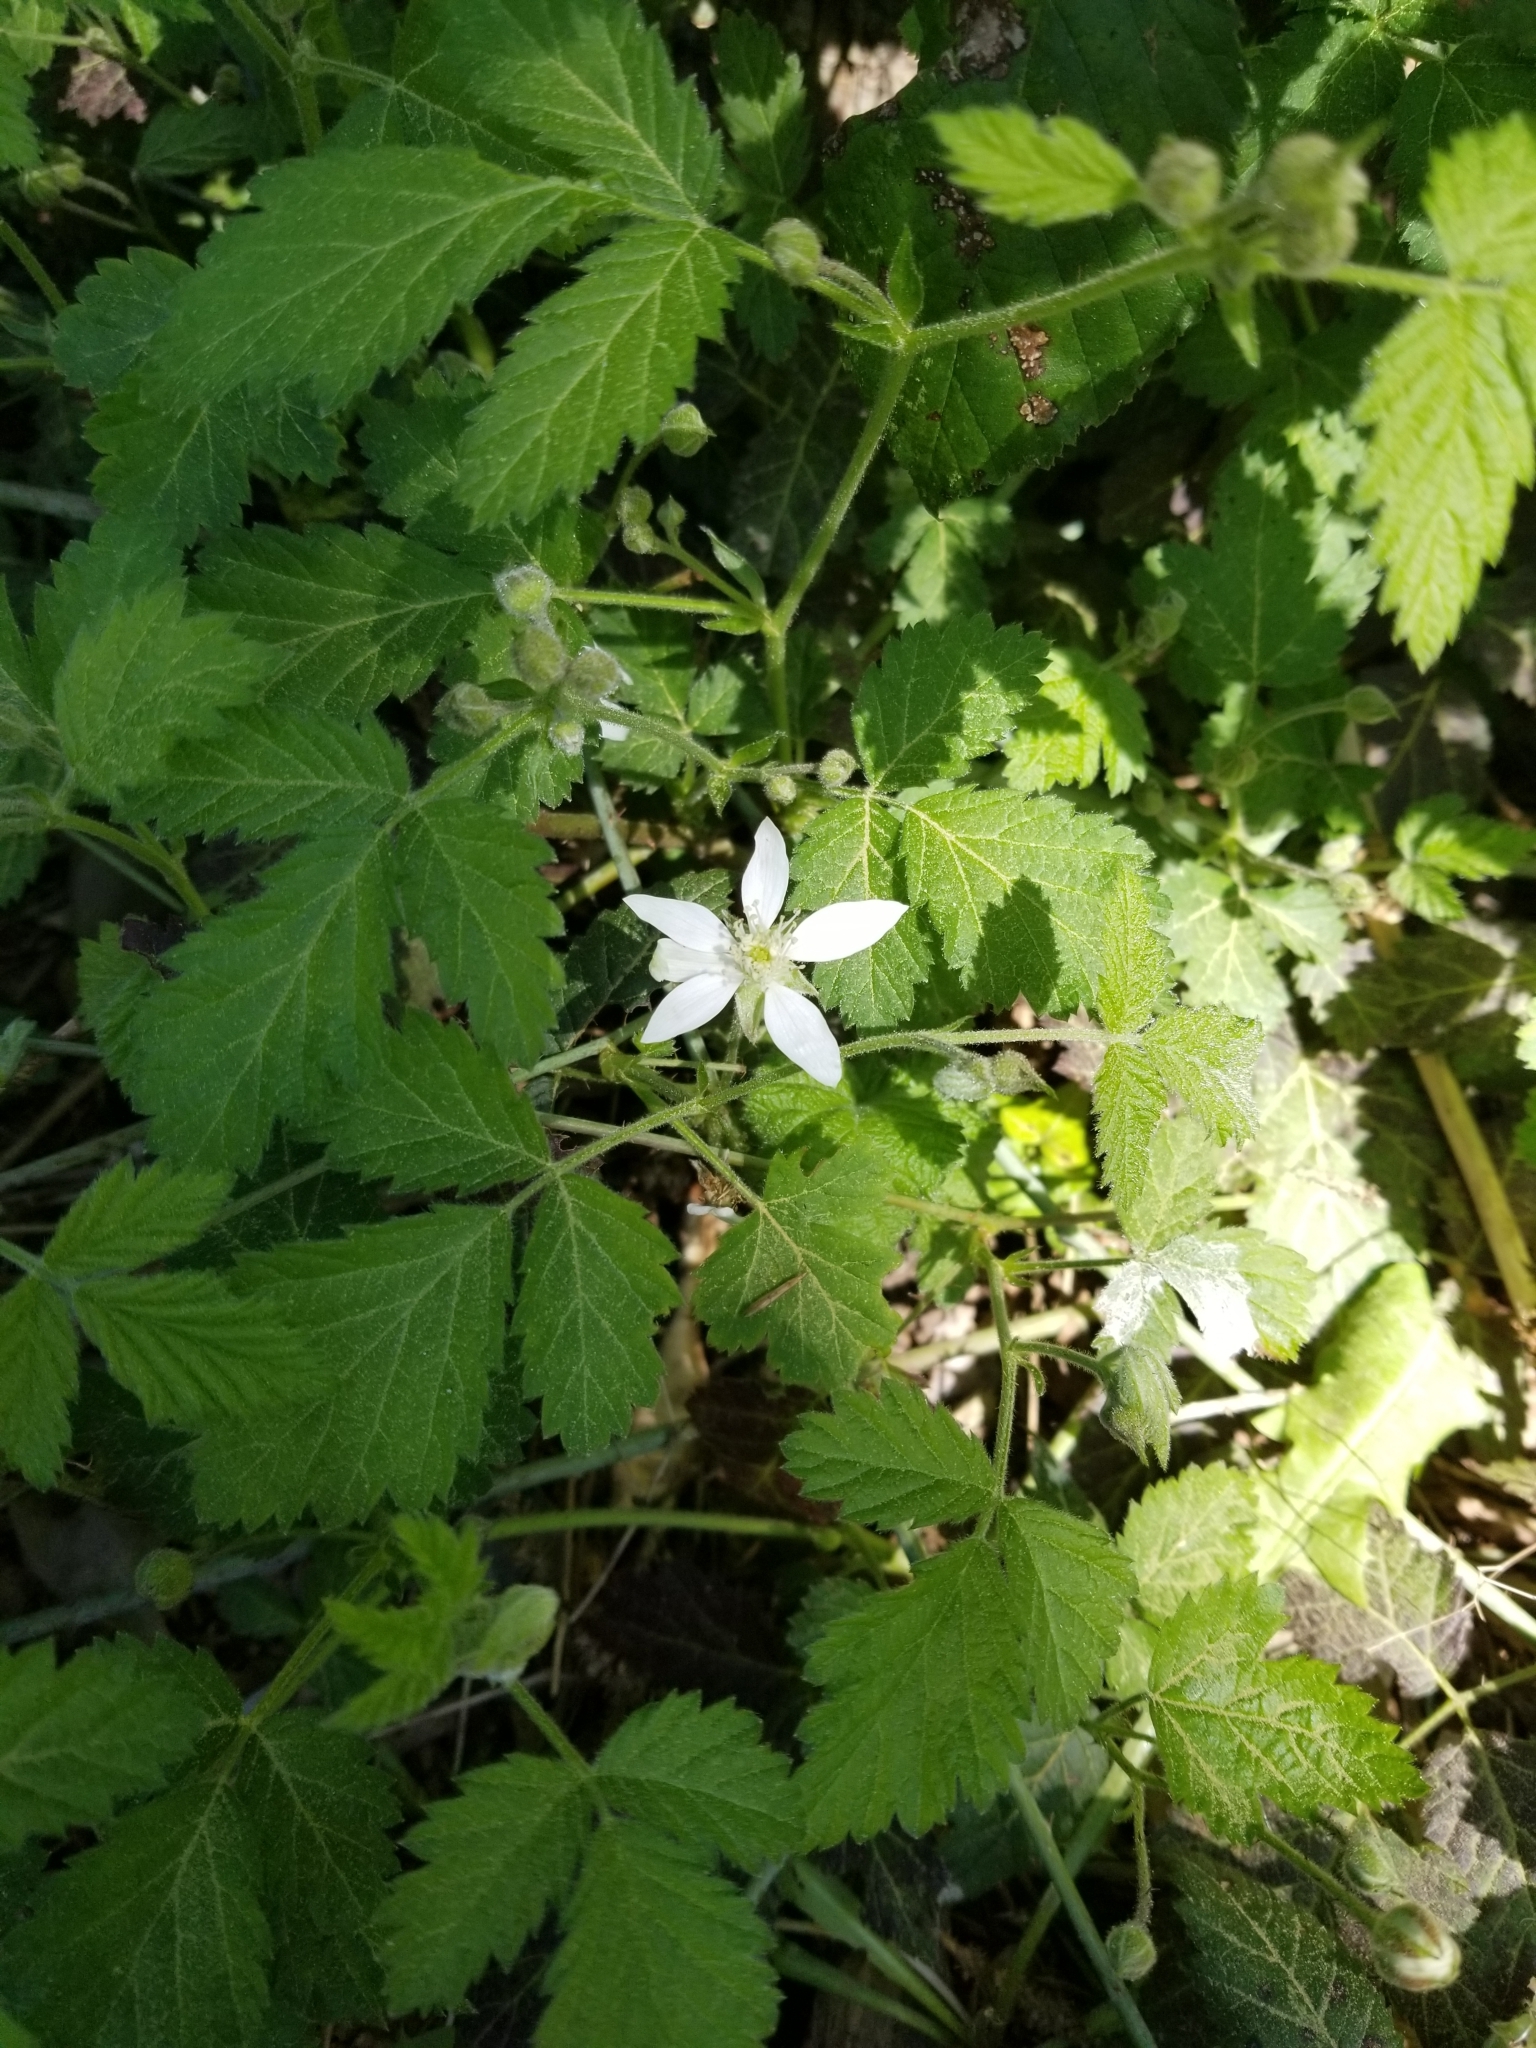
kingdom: Plantae
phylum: Tracheophyta
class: Magnoliopsida
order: Rosales
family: Rosaceae
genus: Rubus
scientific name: Rubus ursinus
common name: Pacific blackberry
